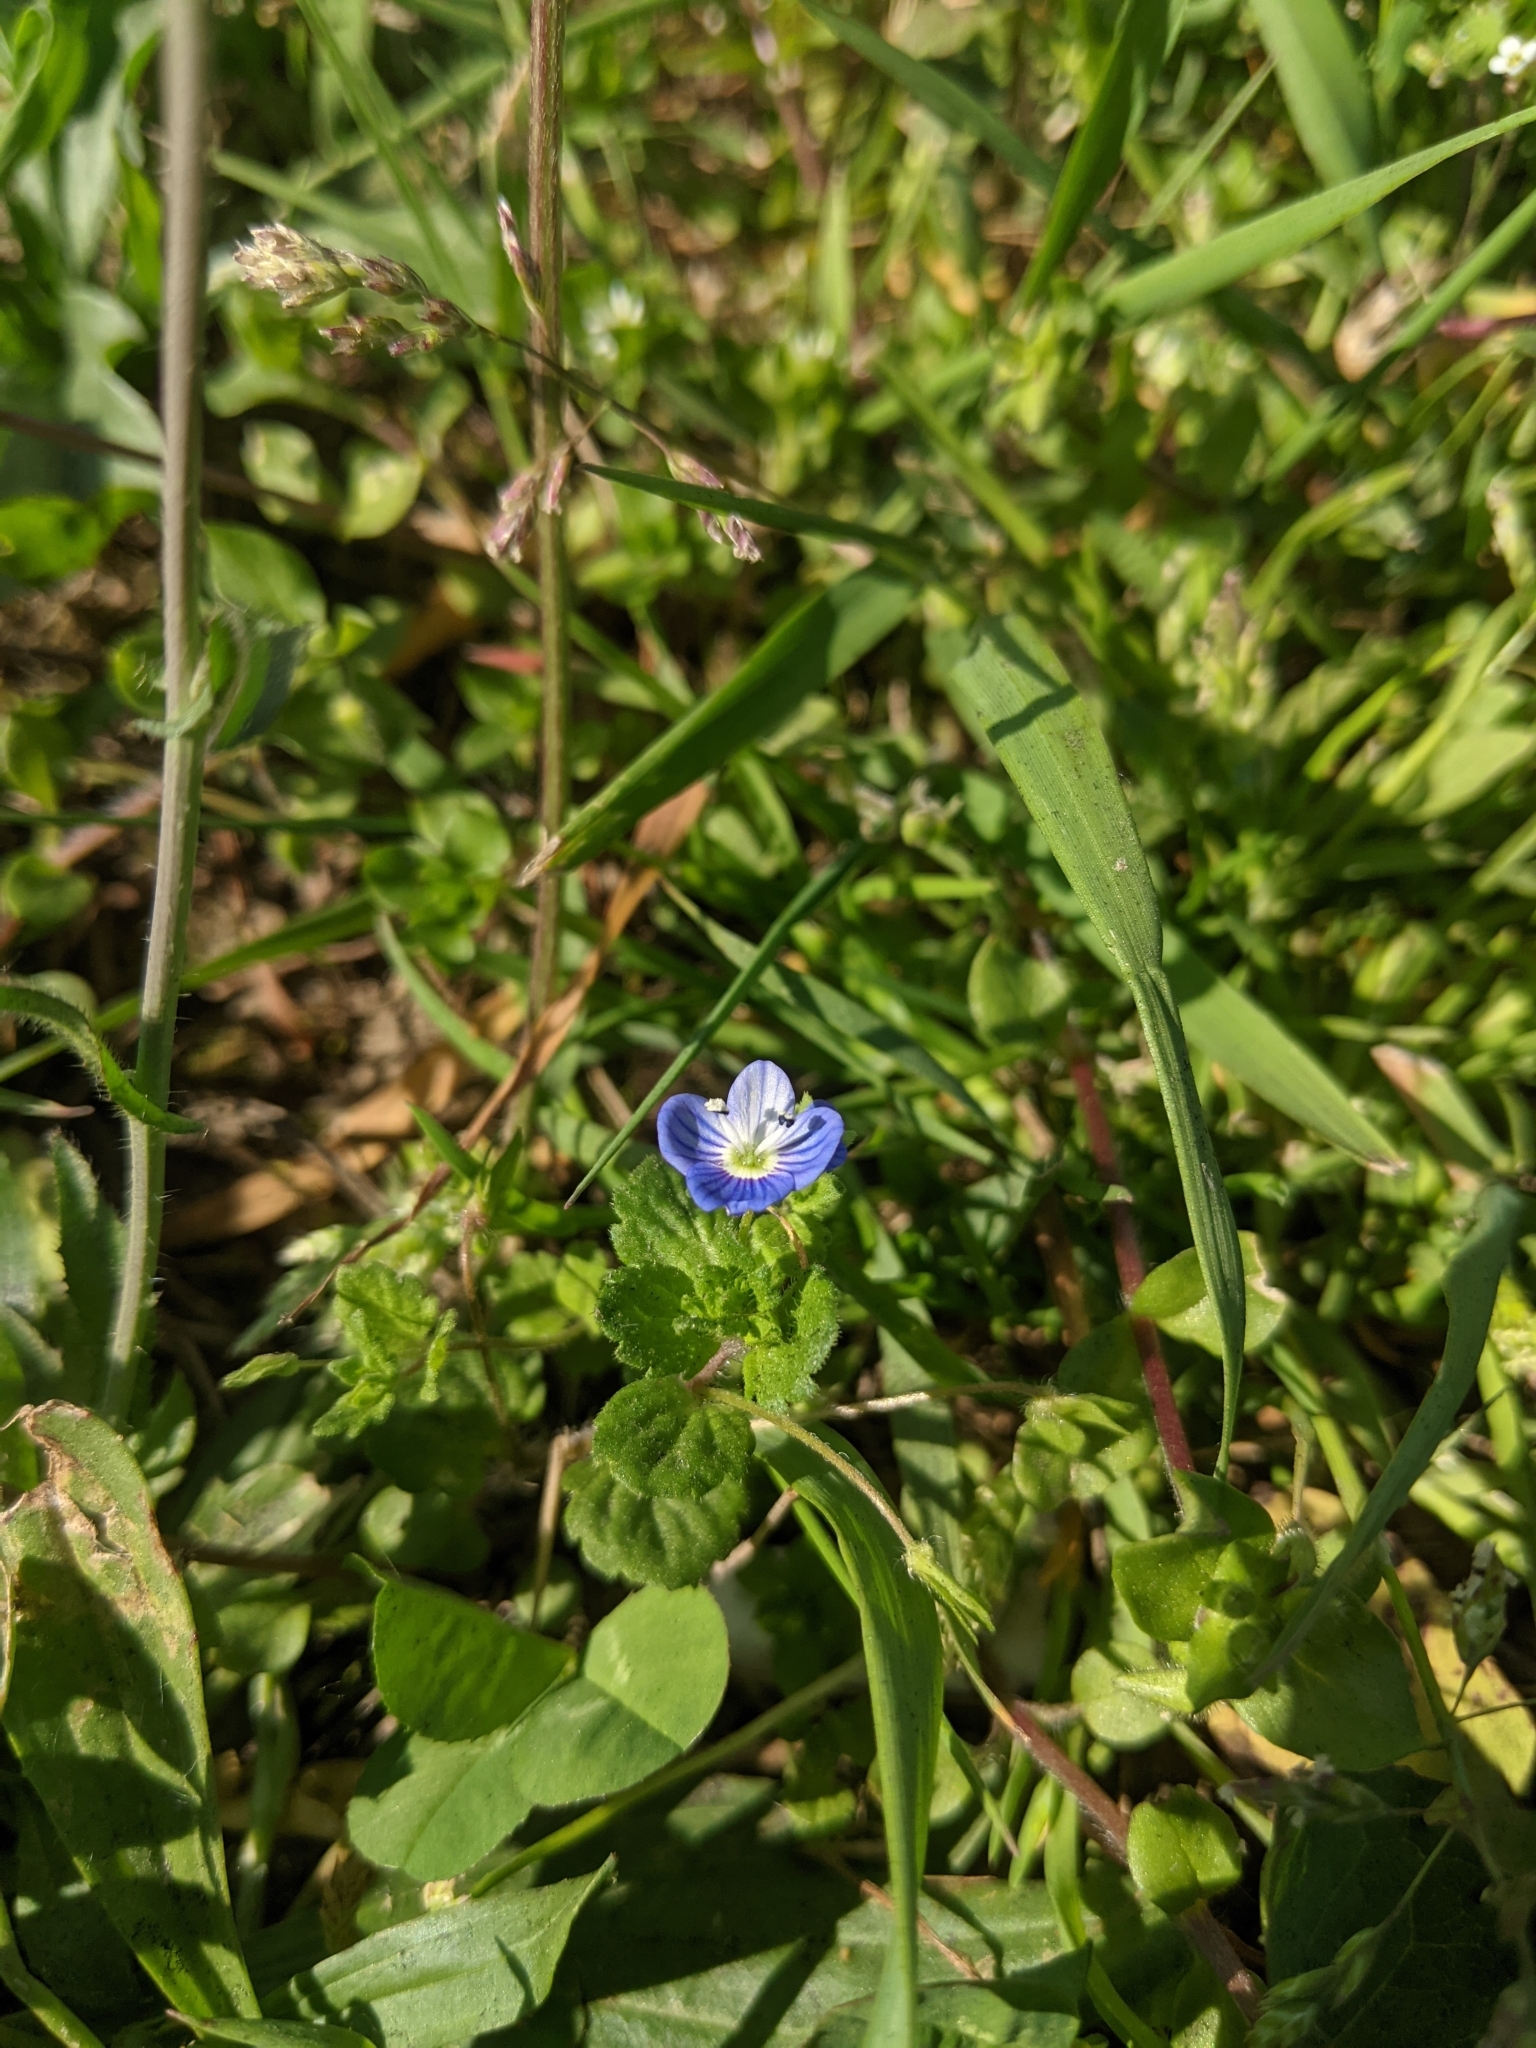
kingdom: Plantae
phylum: Tracheophyta
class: Magnoliopsida
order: Lamiales
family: Plantaginaceae
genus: Veronica
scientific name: Veronica persica
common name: Common field-speedwell
